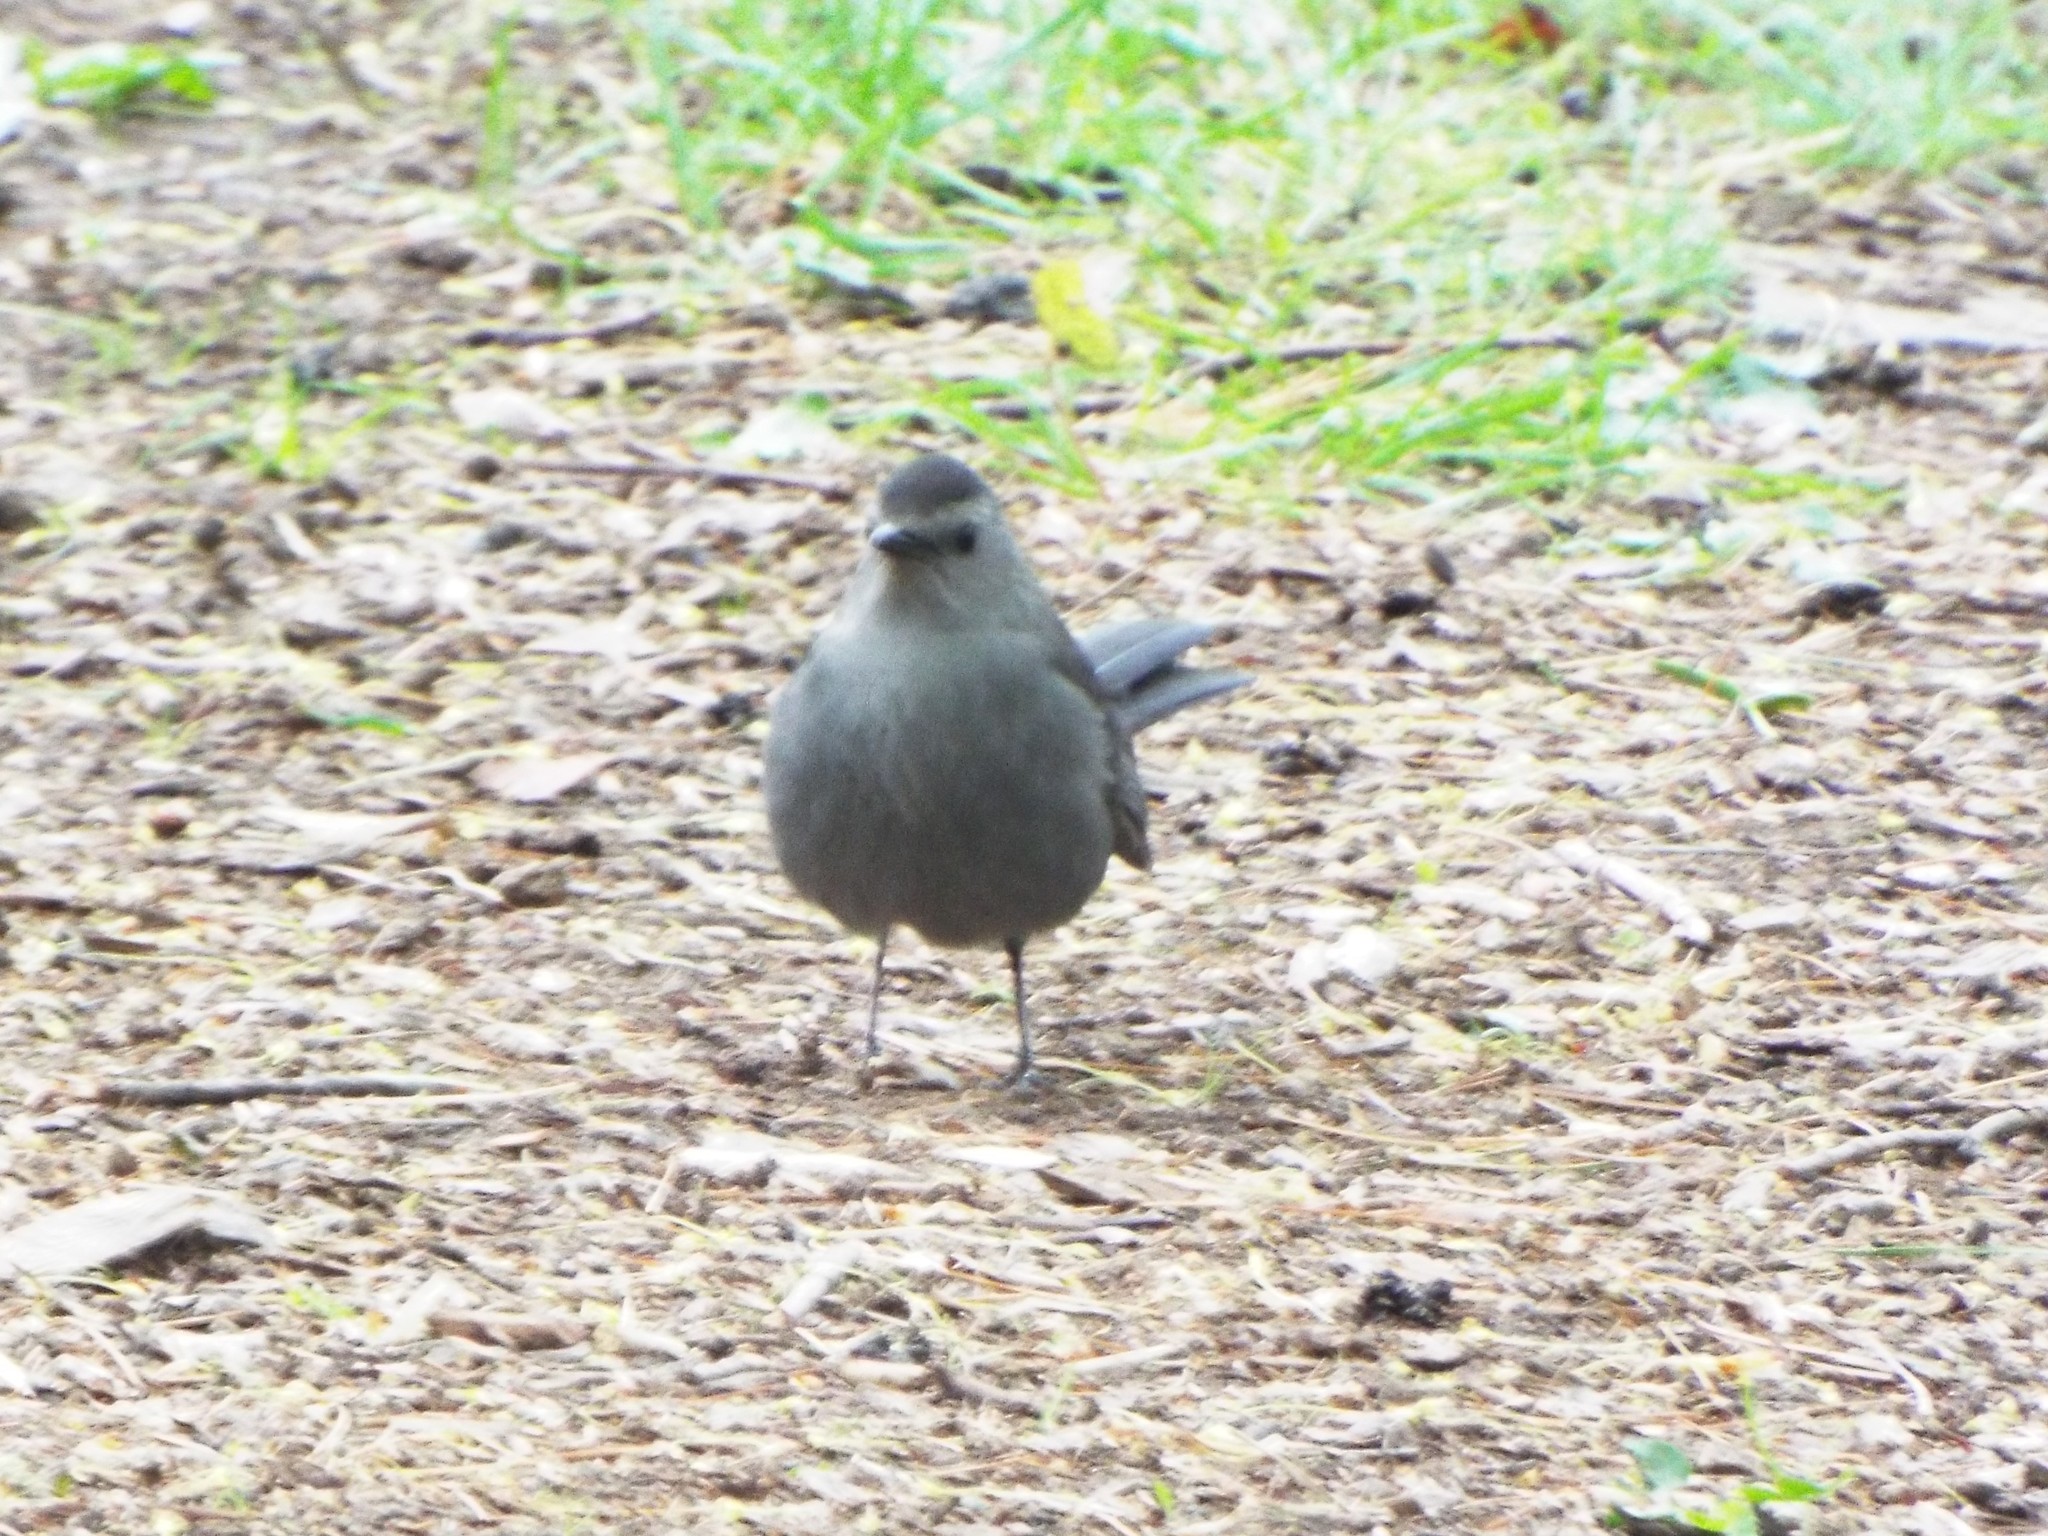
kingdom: Animalia
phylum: Chordata
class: Aves
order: Passeriformes
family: Mimidae
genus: Dumetella
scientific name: Dumetella carolinensis
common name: Gray catbird
